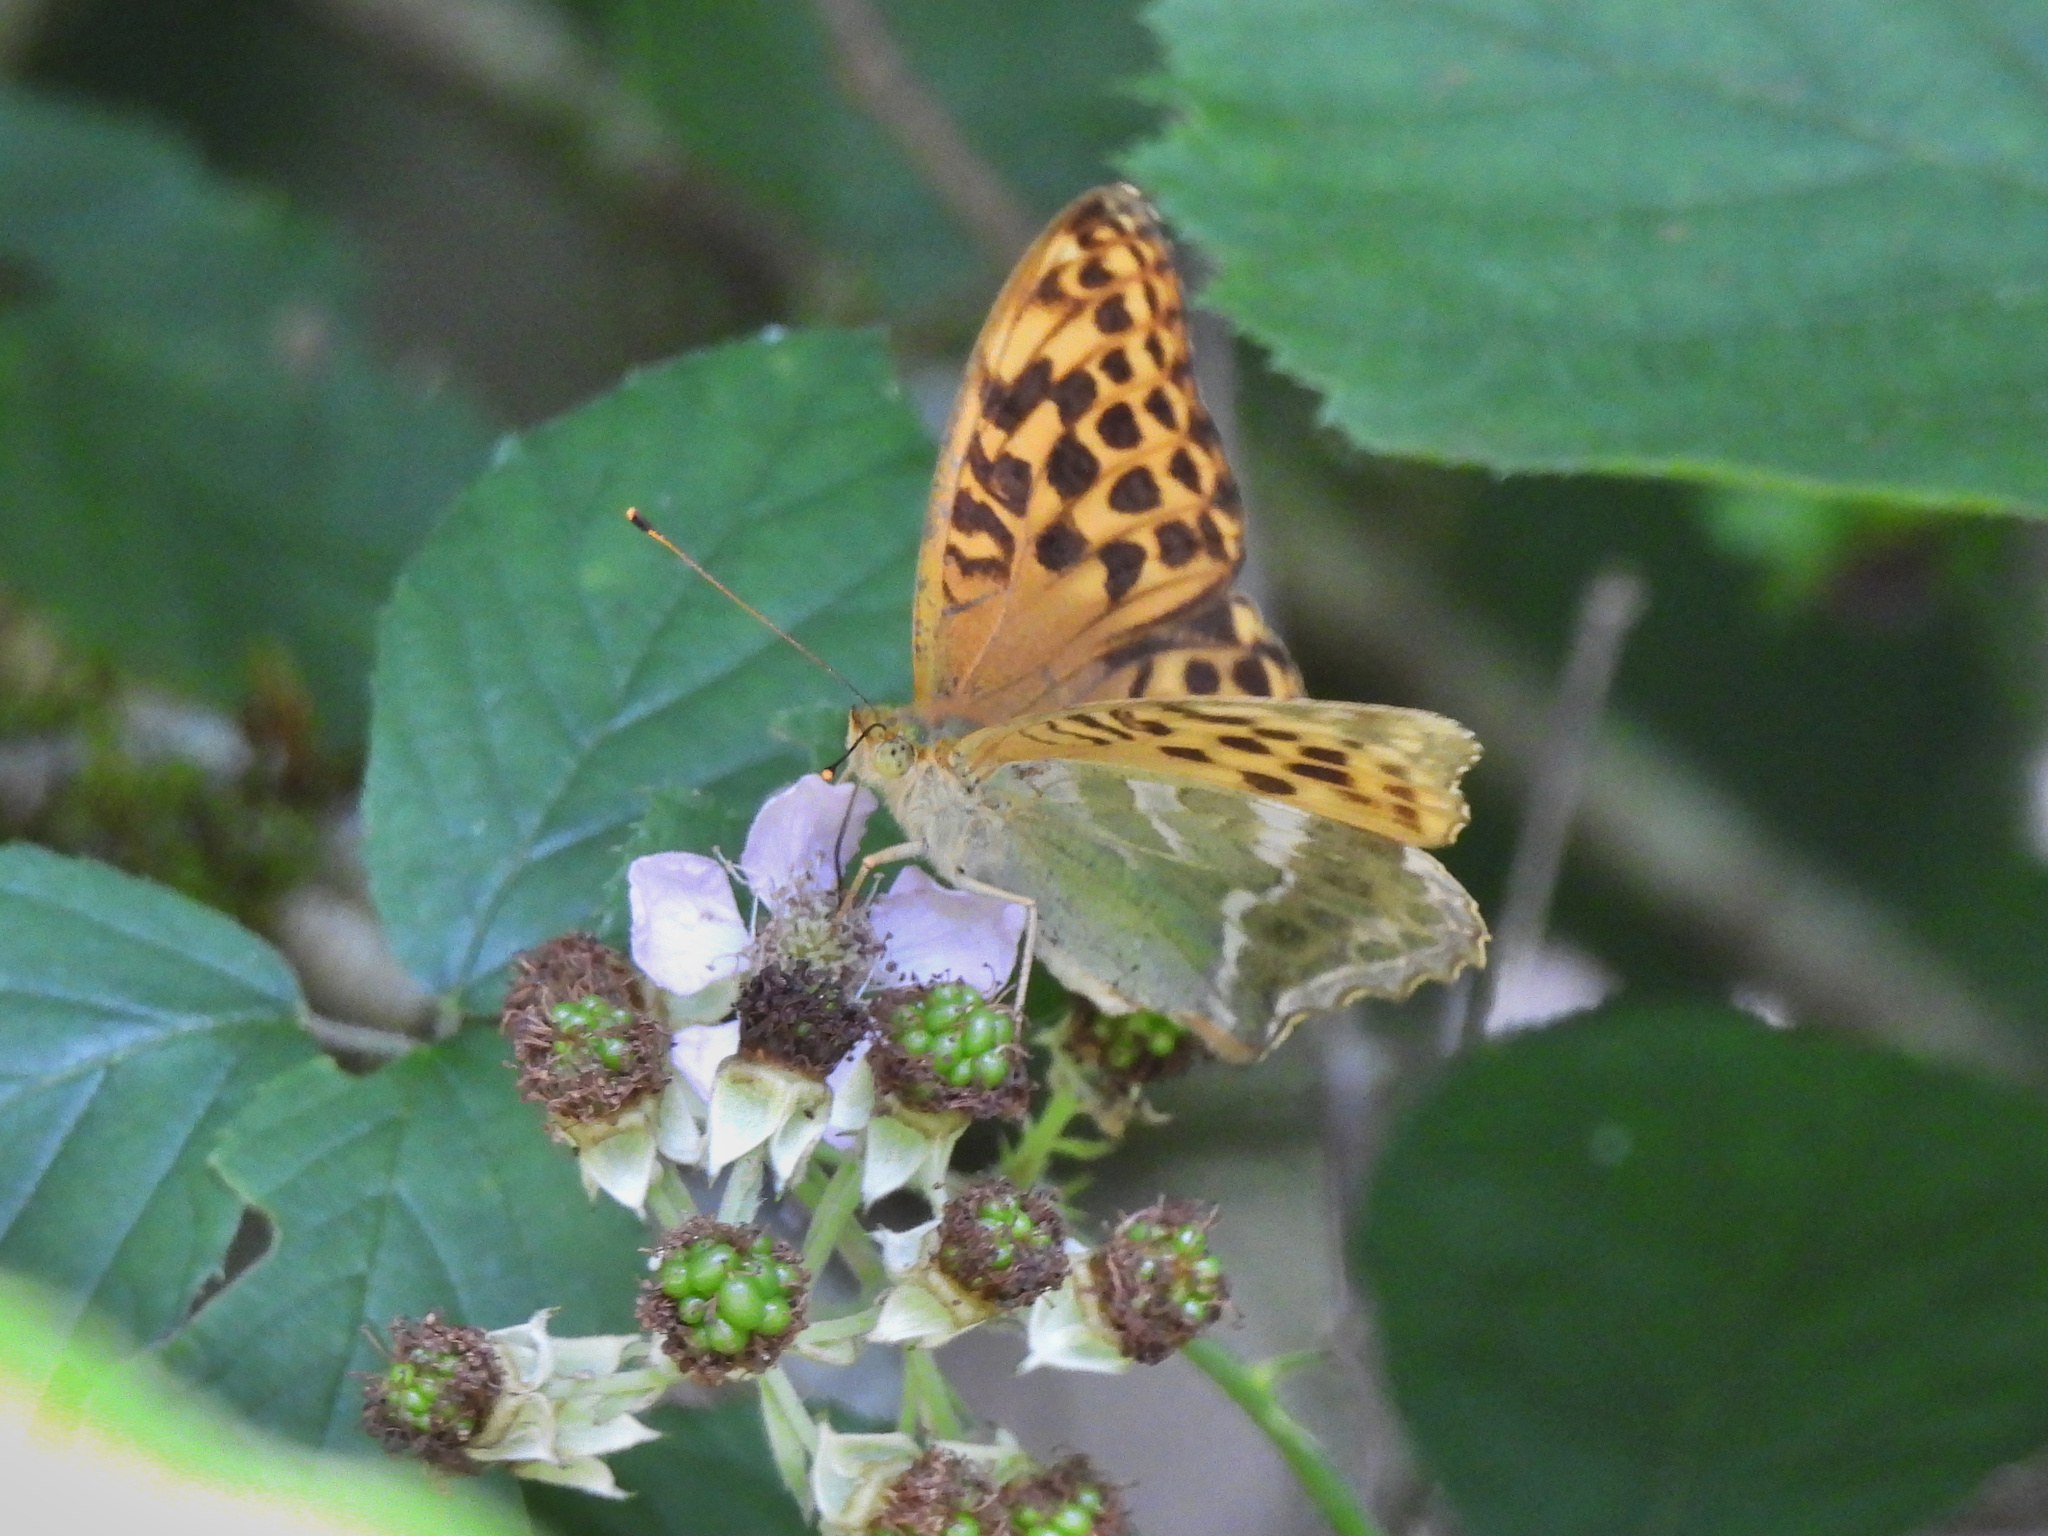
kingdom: Animalia
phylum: Arthropoda
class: Insecta
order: Lepidoptera
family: Nymphalidae
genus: Argynnis
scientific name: Argynnis paphia
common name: Silver-washed fritillary
